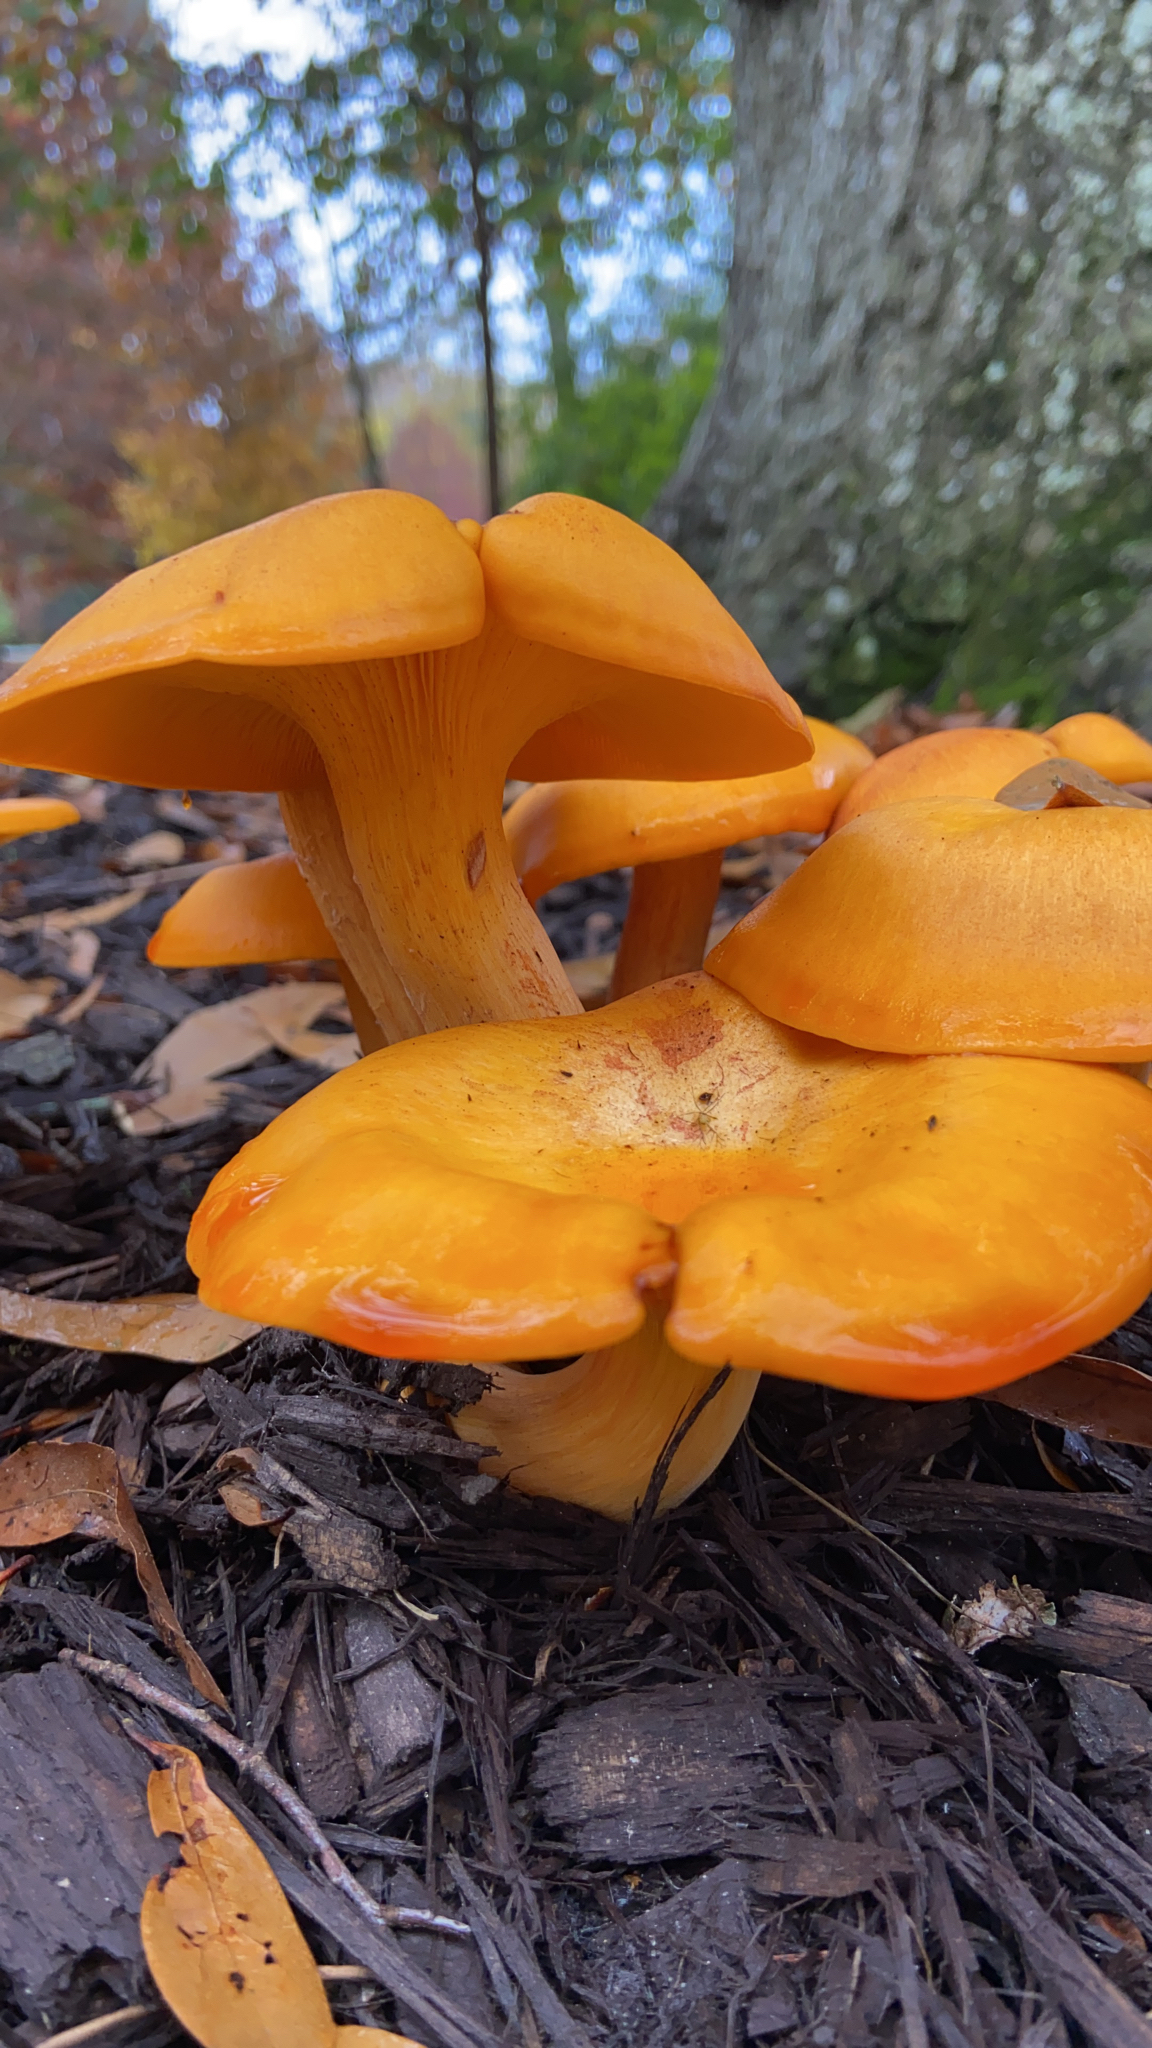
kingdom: Fungi
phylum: Basidiomycota
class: Agaricomycetes
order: Agaricales
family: Omphalotaceae
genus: Omphalotus
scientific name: Omphalotus illudens
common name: Jack o lantern
